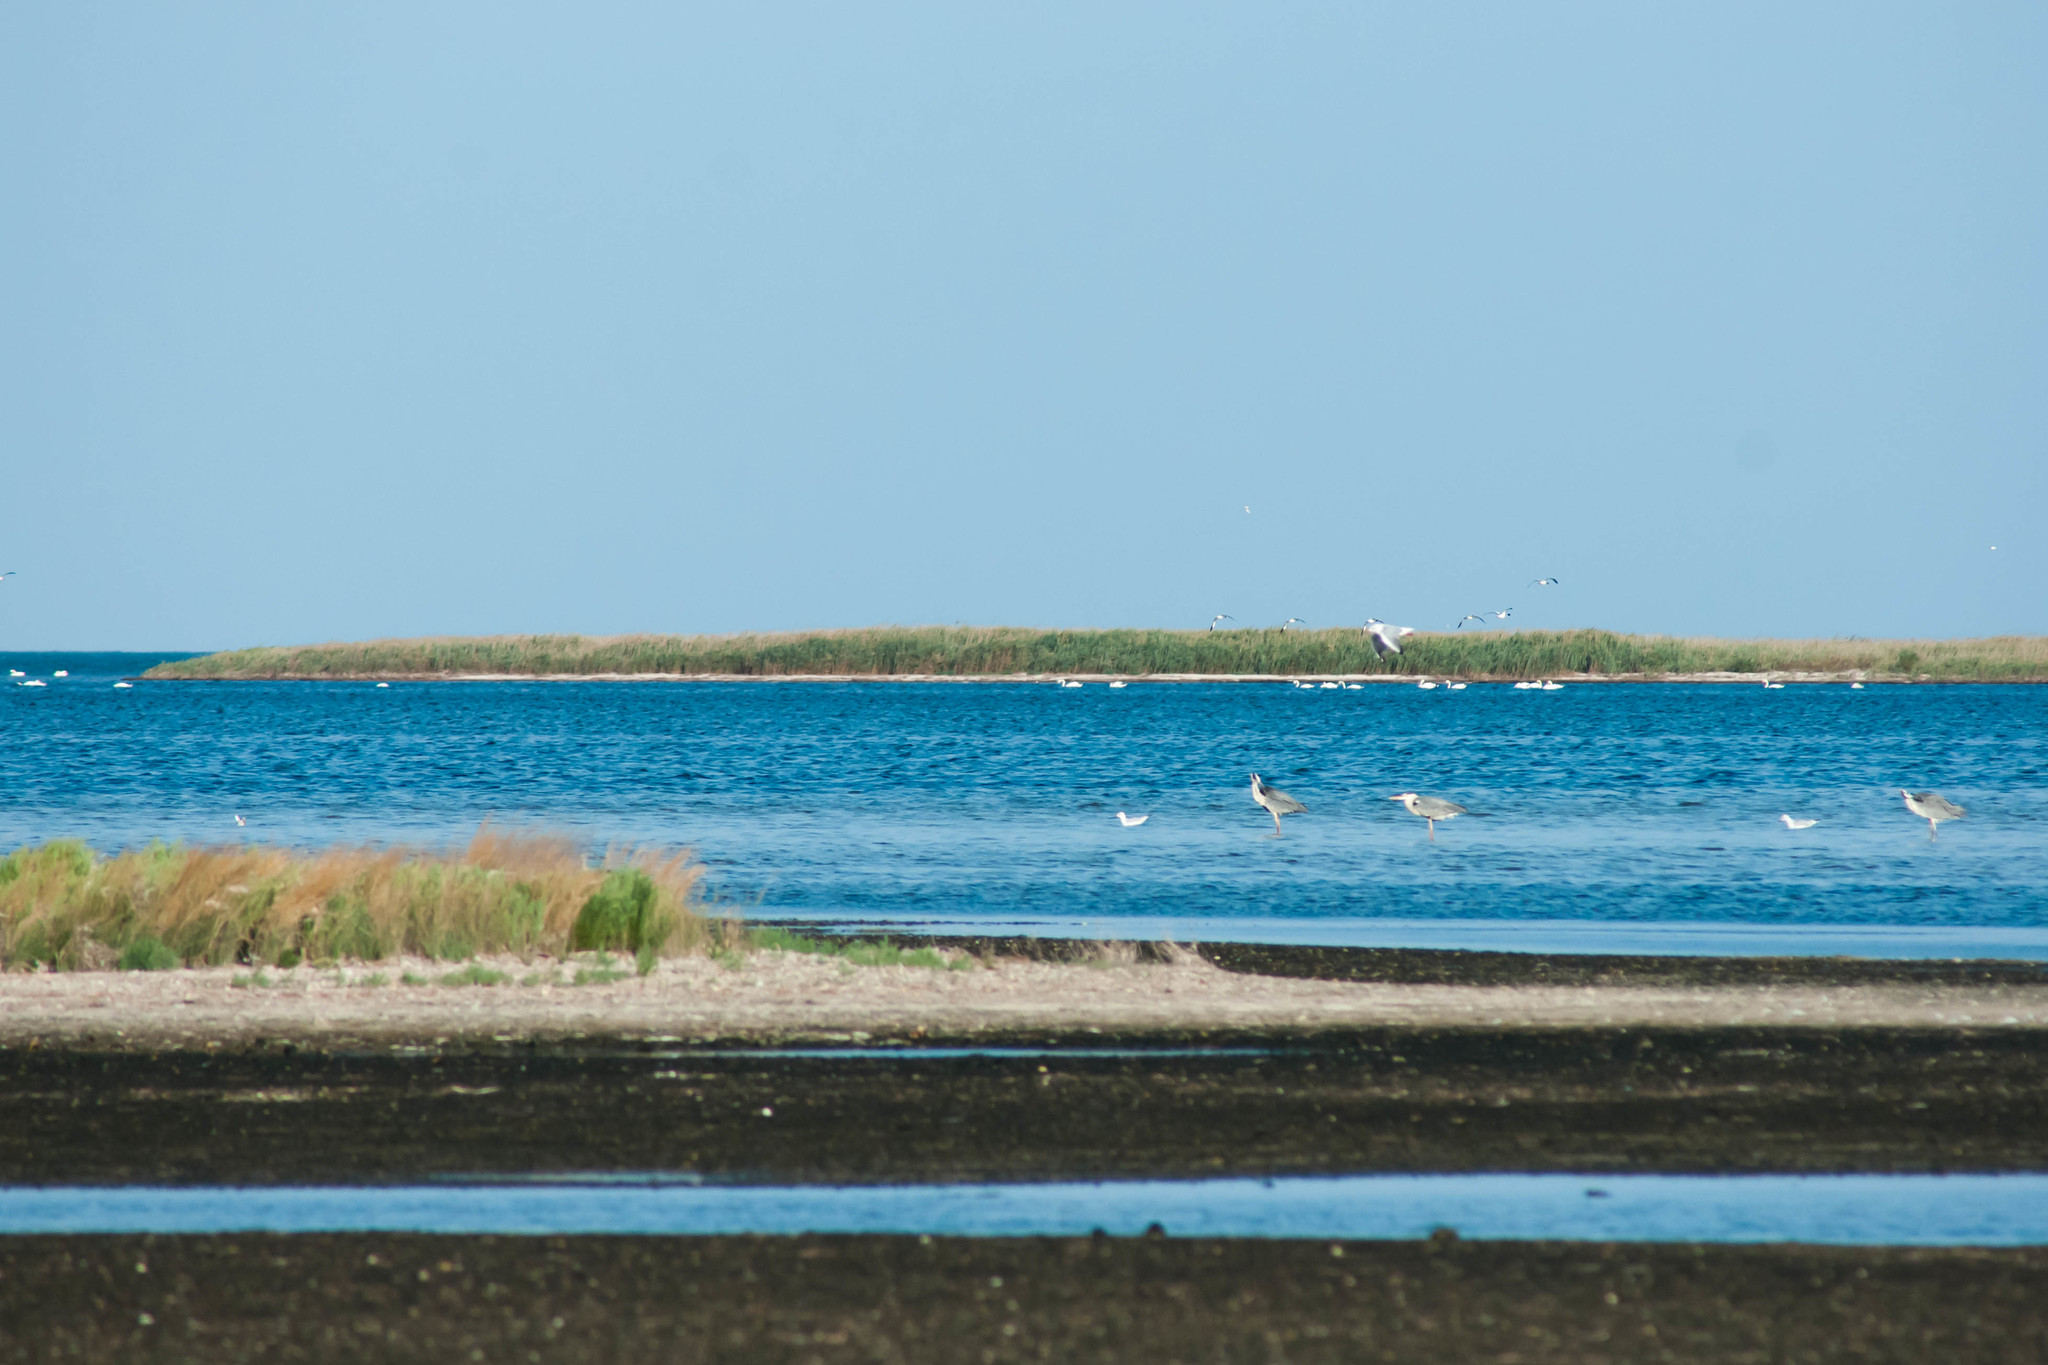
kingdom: Animalia
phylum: Chordata
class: Aves
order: Pelecaniformes
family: Ardeidae
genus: Ardea
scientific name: Ardea cinerea
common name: Grey heron
